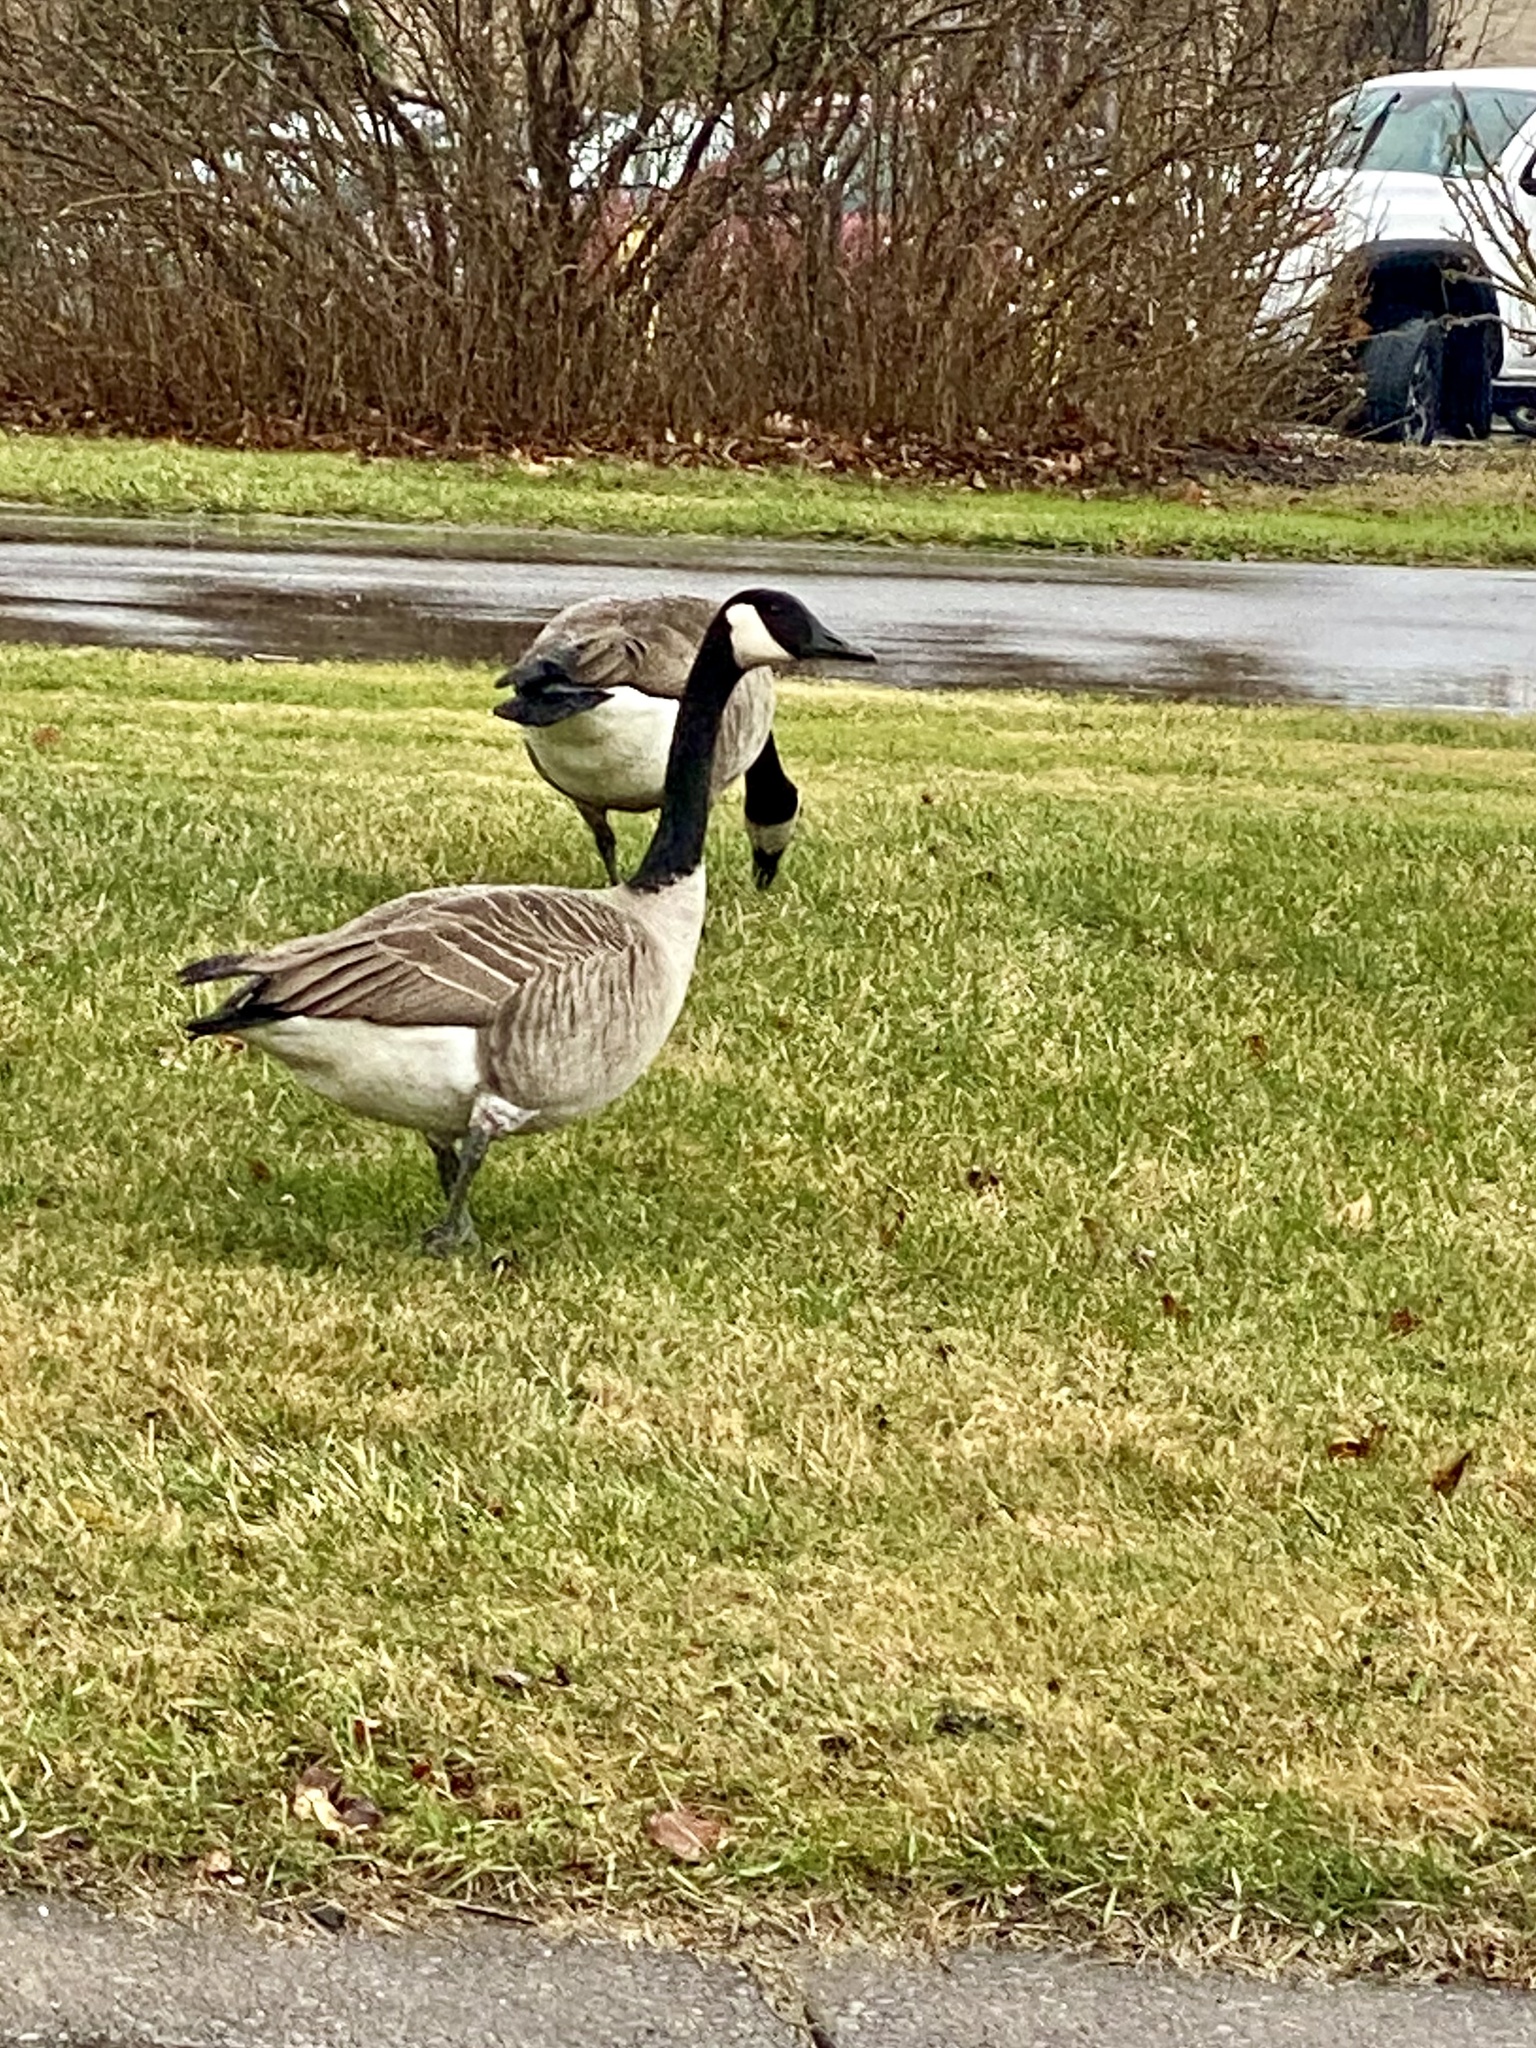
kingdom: Animalia
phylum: Chordata
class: Aves
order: Anseriformes
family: Anatidae
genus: Branta
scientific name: Branta canadensis
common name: Canada goose
